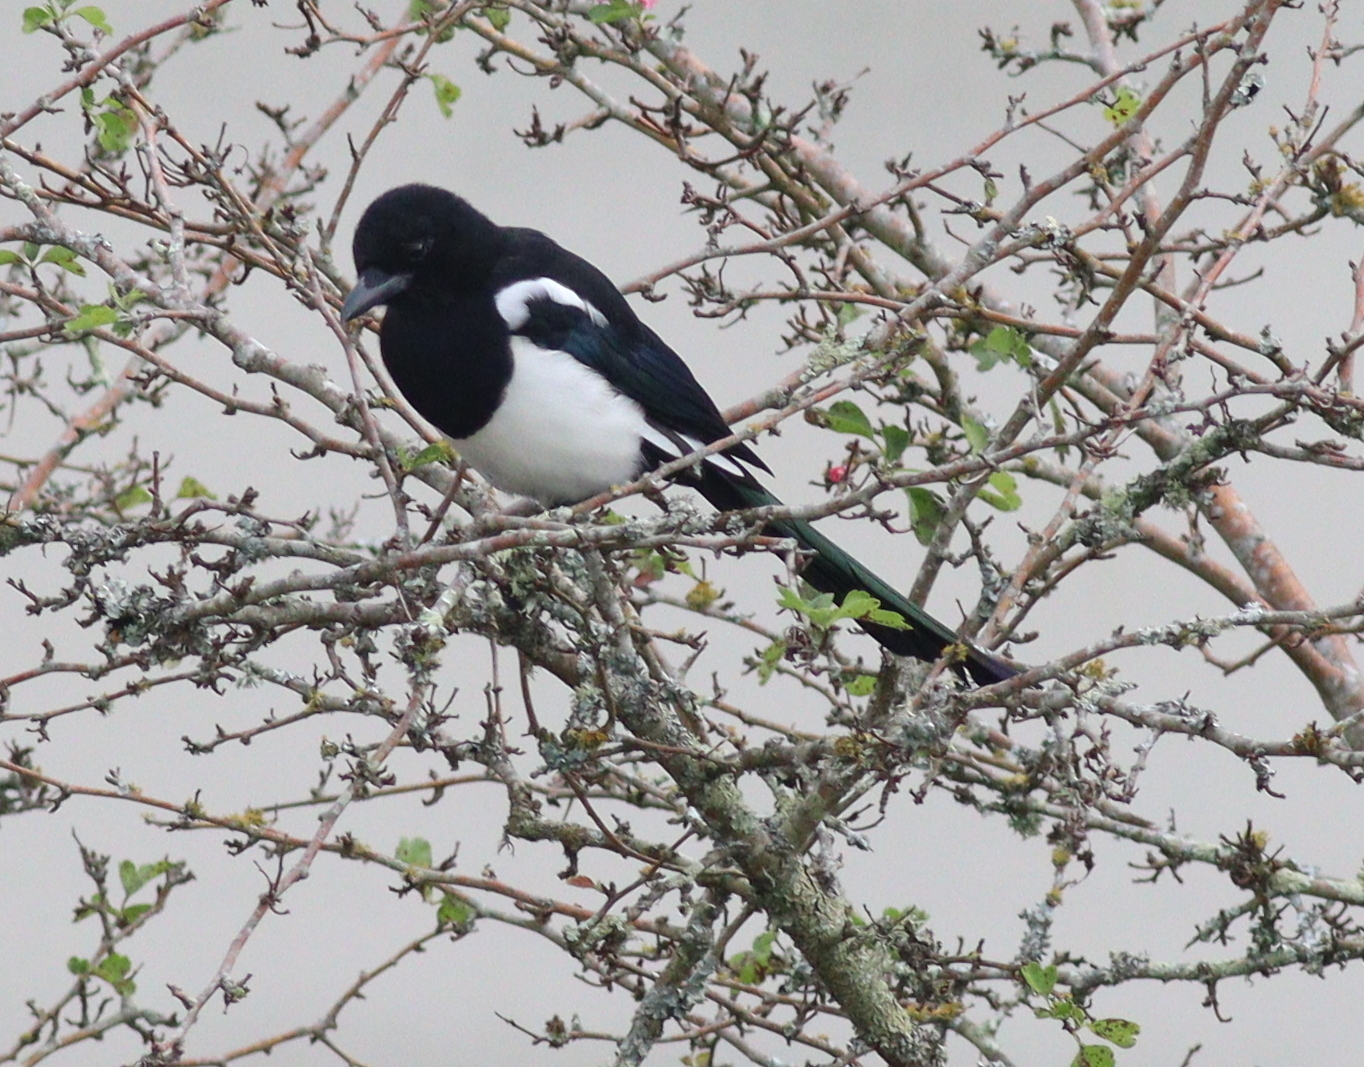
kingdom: Animalia
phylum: Chordata
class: Aves
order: Passeriformes
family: Corvidae
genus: Pica
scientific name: Pica pica
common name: Eurasian magpie
